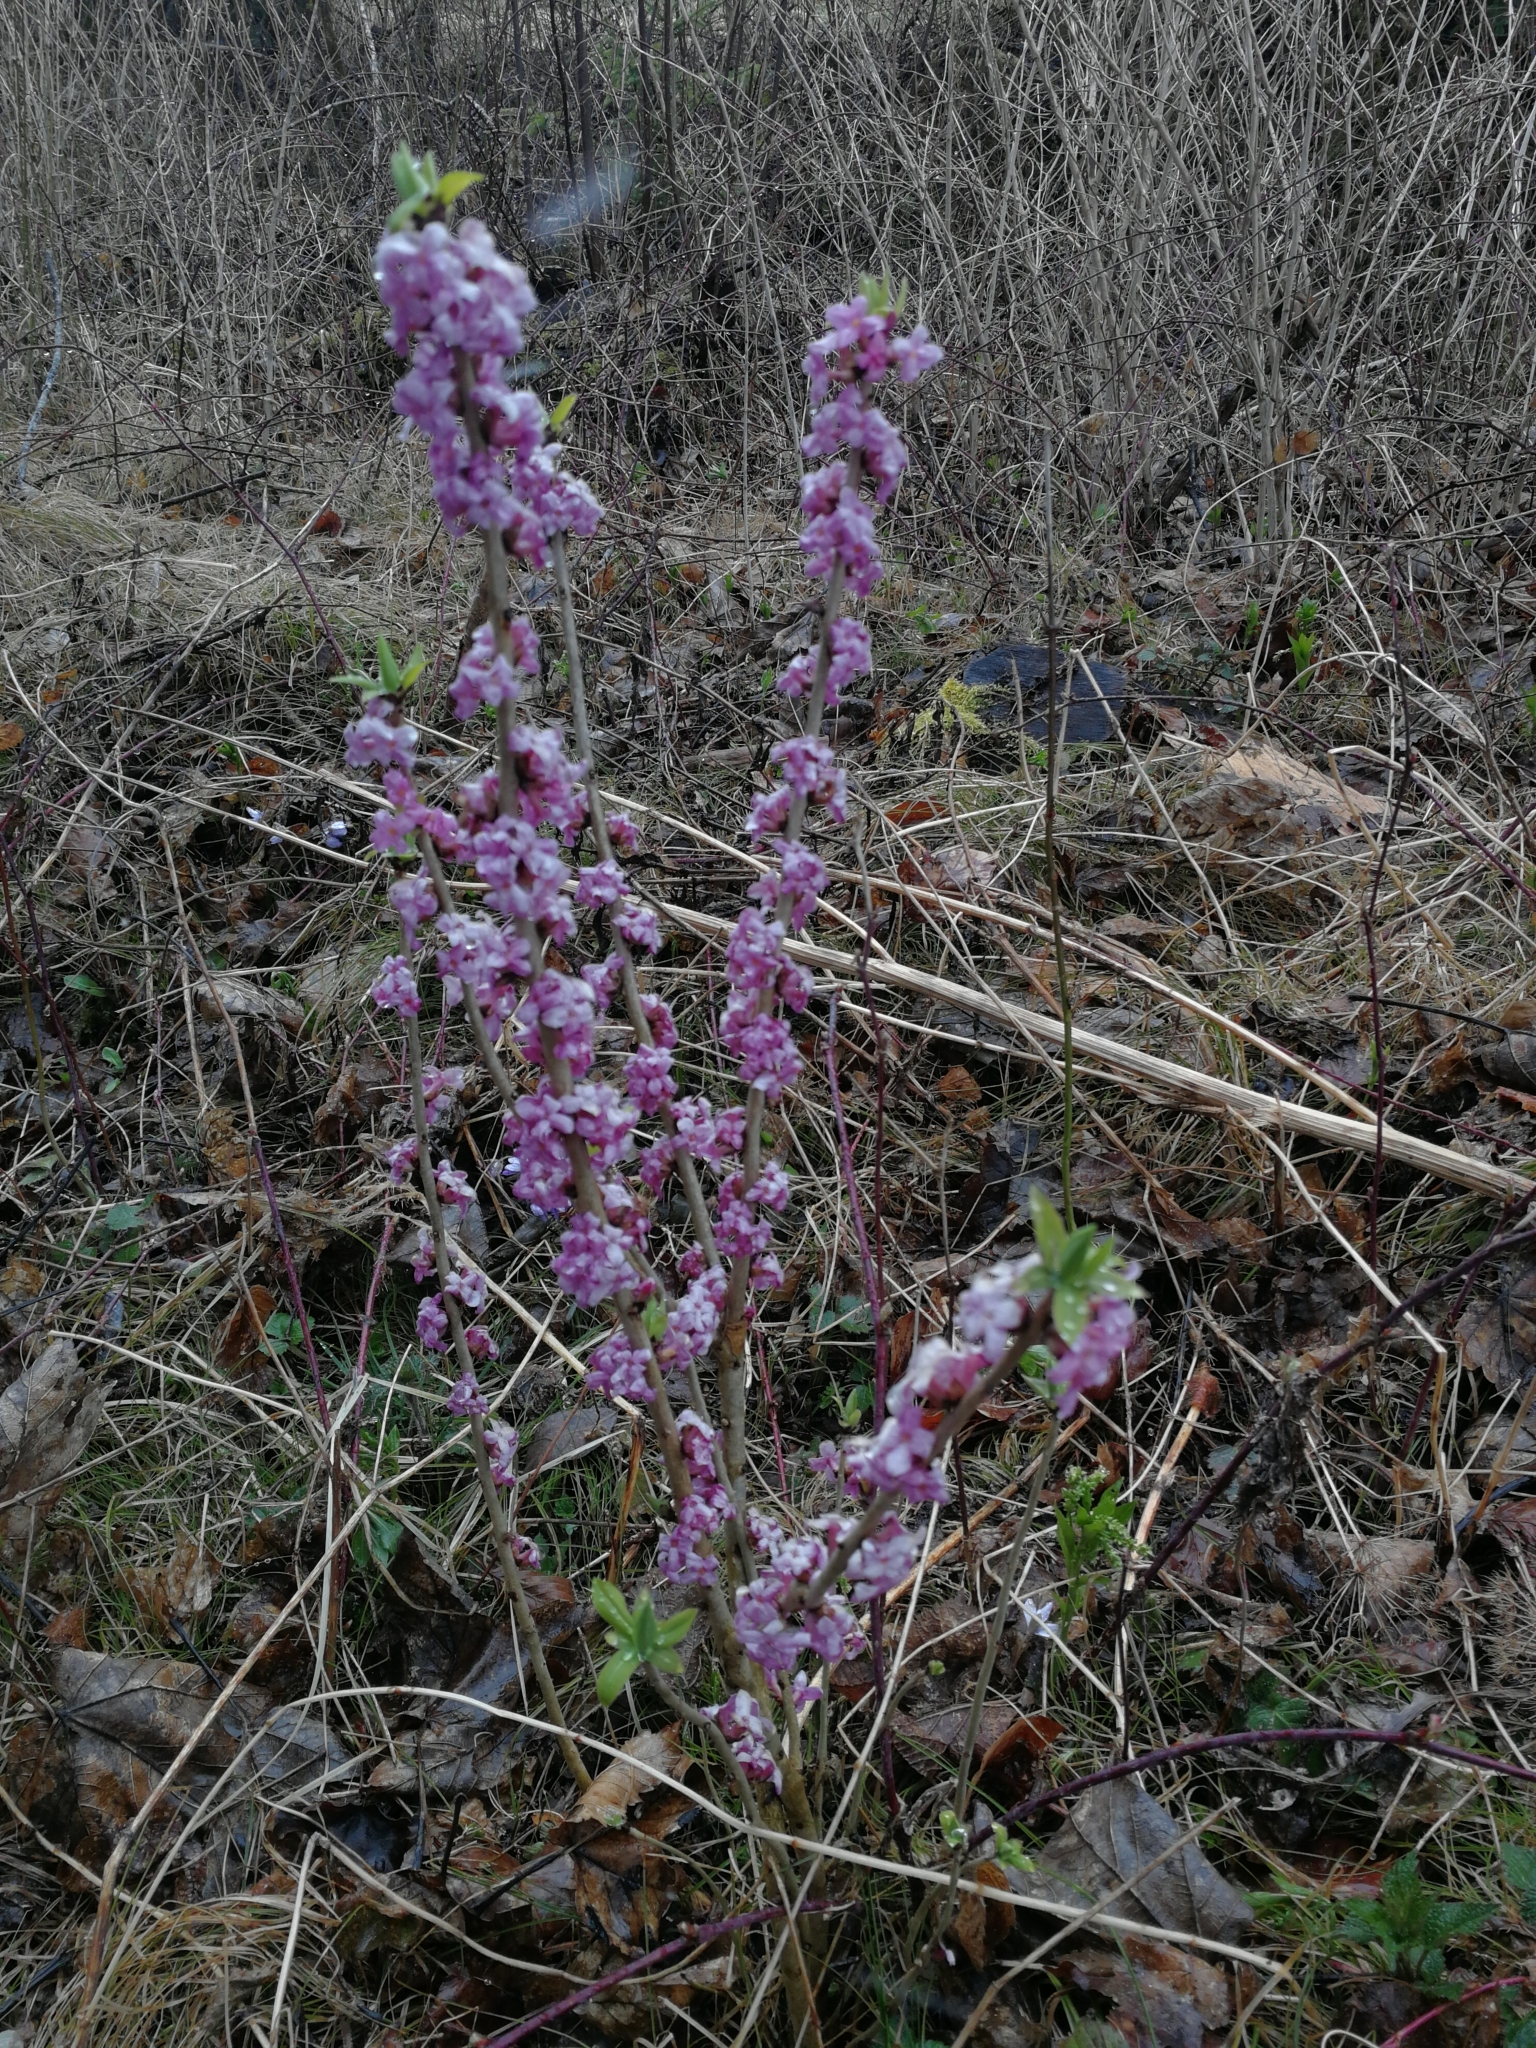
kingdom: Plantae
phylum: Tracheophyta
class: Magnoliopsida
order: Malvales
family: Thymelaeaceae
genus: Daphne
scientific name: Daphne mezereum
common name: Mezereon
